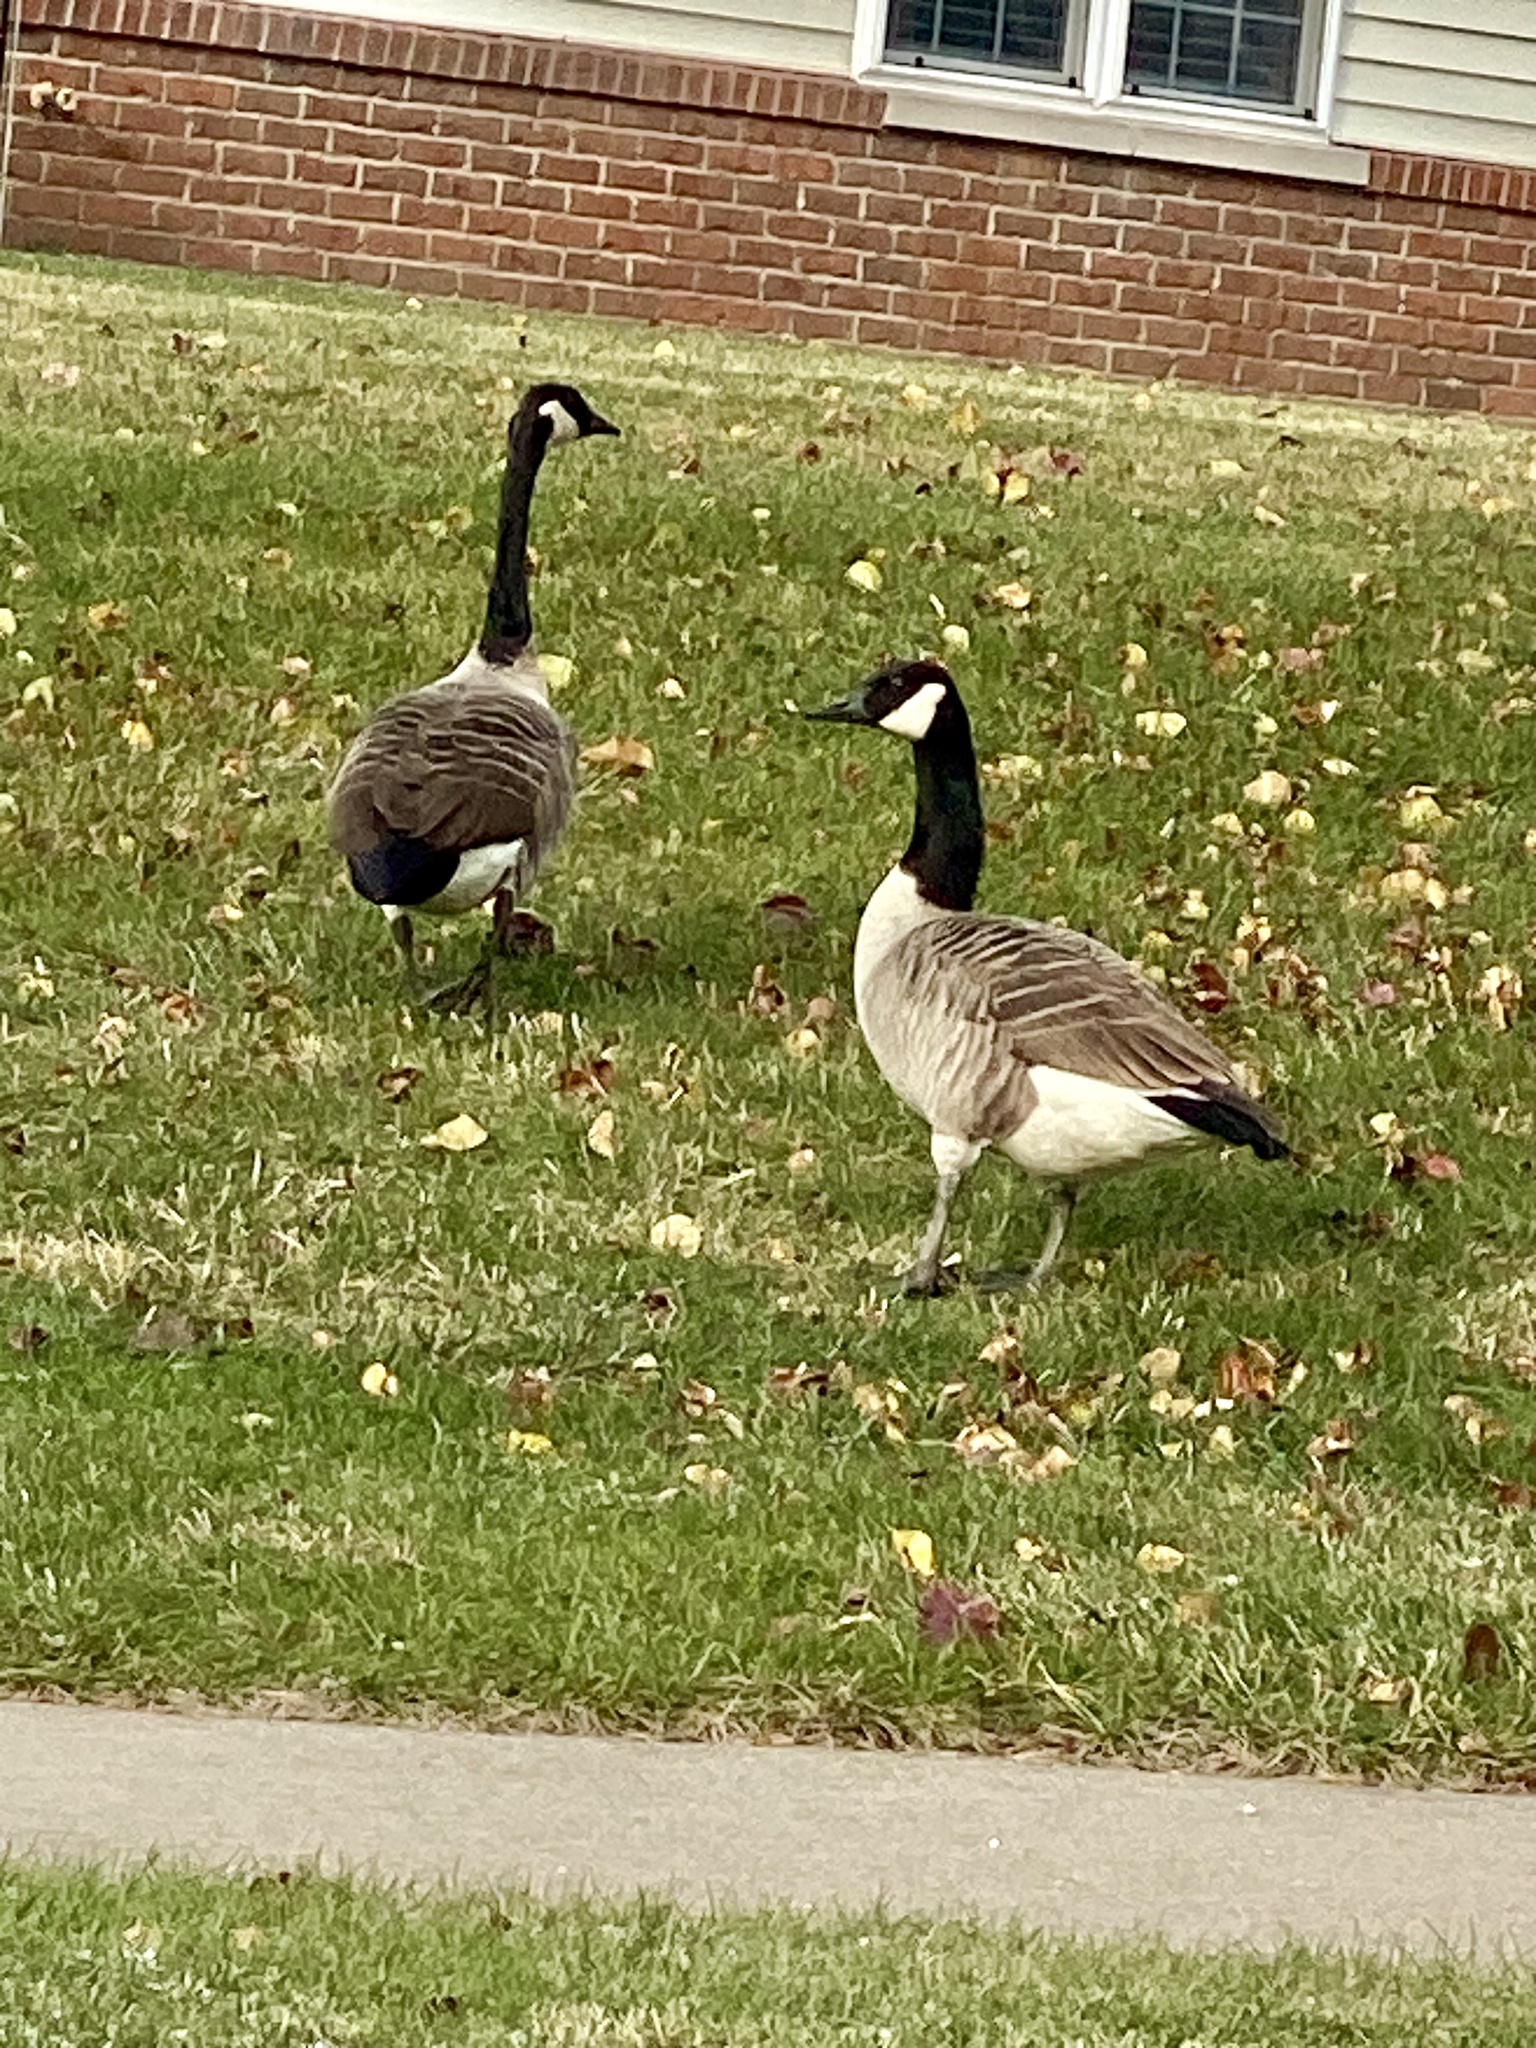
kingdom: Animalia
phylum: Chordata
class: Aves
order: Anseriformes
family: Anatidae
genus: Branta
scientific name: Branta canadensis
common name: Canada goose
